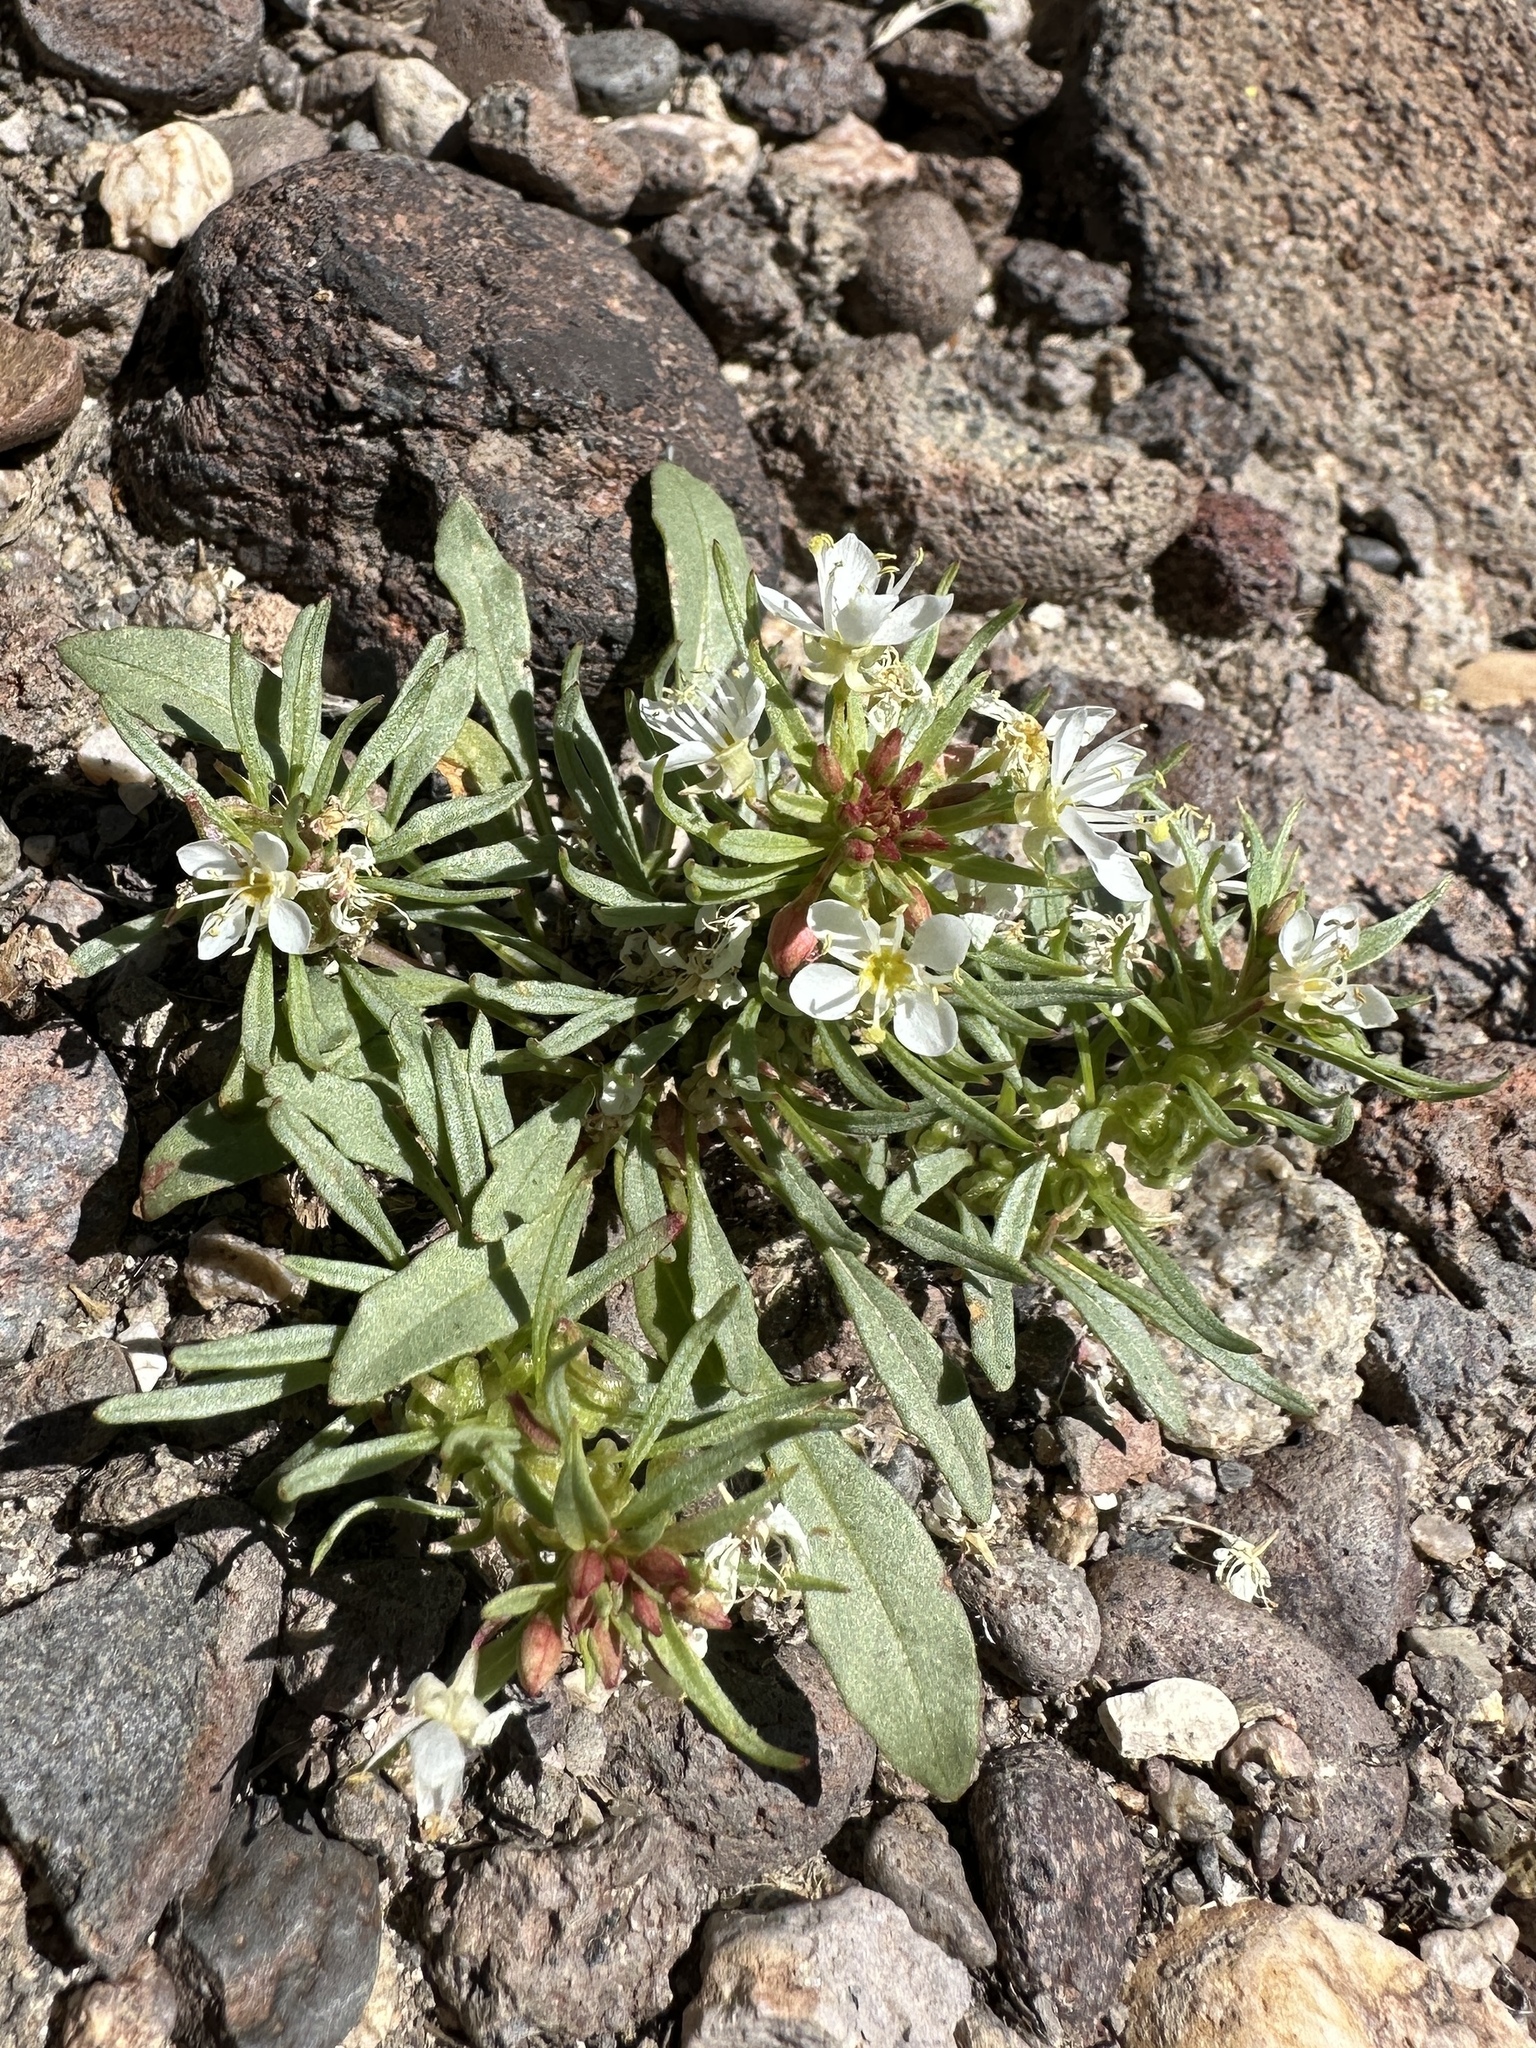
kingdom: Plantae
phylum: Tracheophyta
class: Magnoliopsida
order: Myrtales
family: Onagraceae
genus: Eremothera
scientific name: Eremothera nevadensis
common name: Nevada suncup
